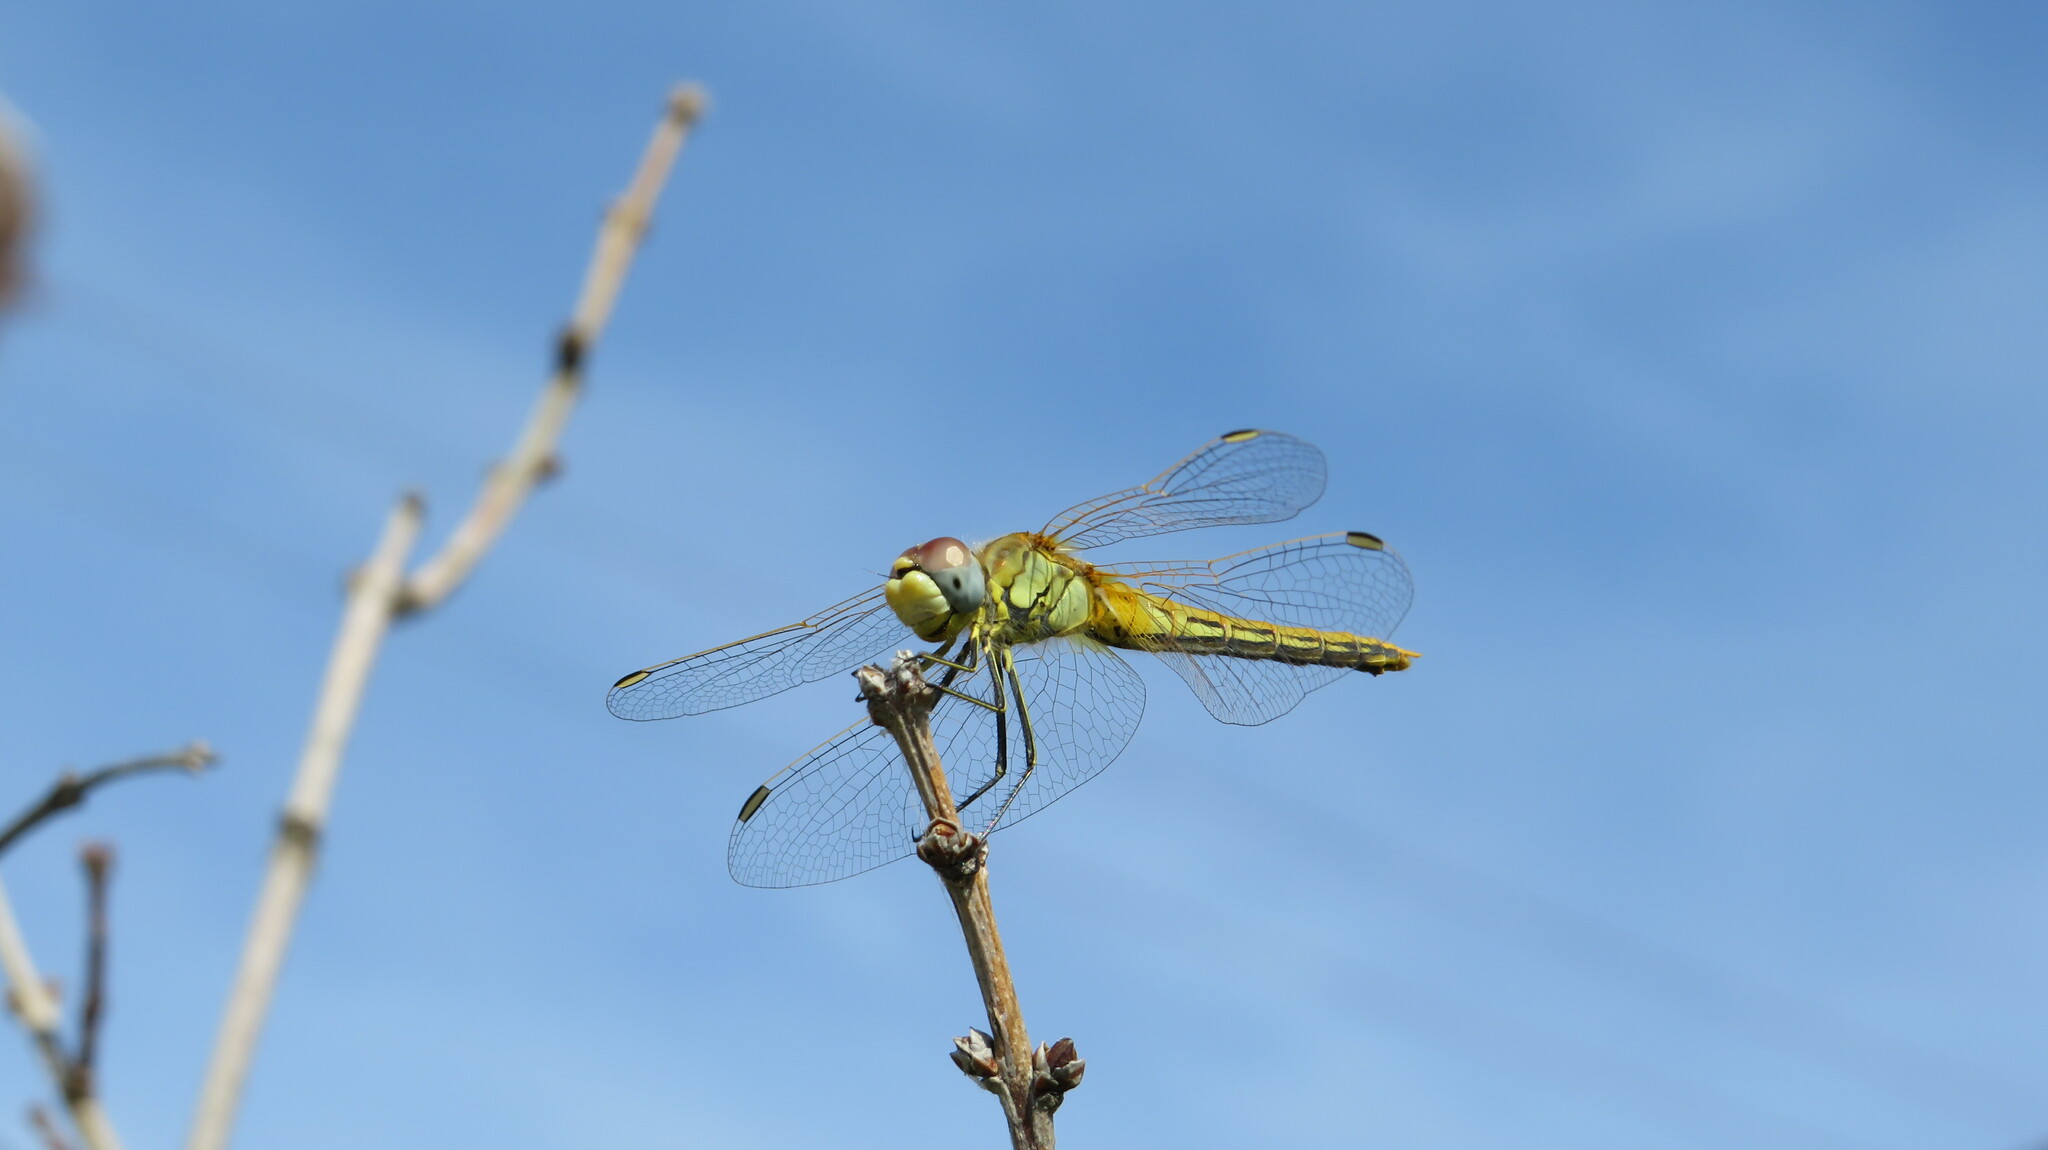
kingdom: Animalia
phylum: Arthropoda
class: Insecta
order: Odonata
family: Libellulidae
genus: Sympetrum
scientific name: Sympetrum fonscolombii
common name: Red-veined darter
